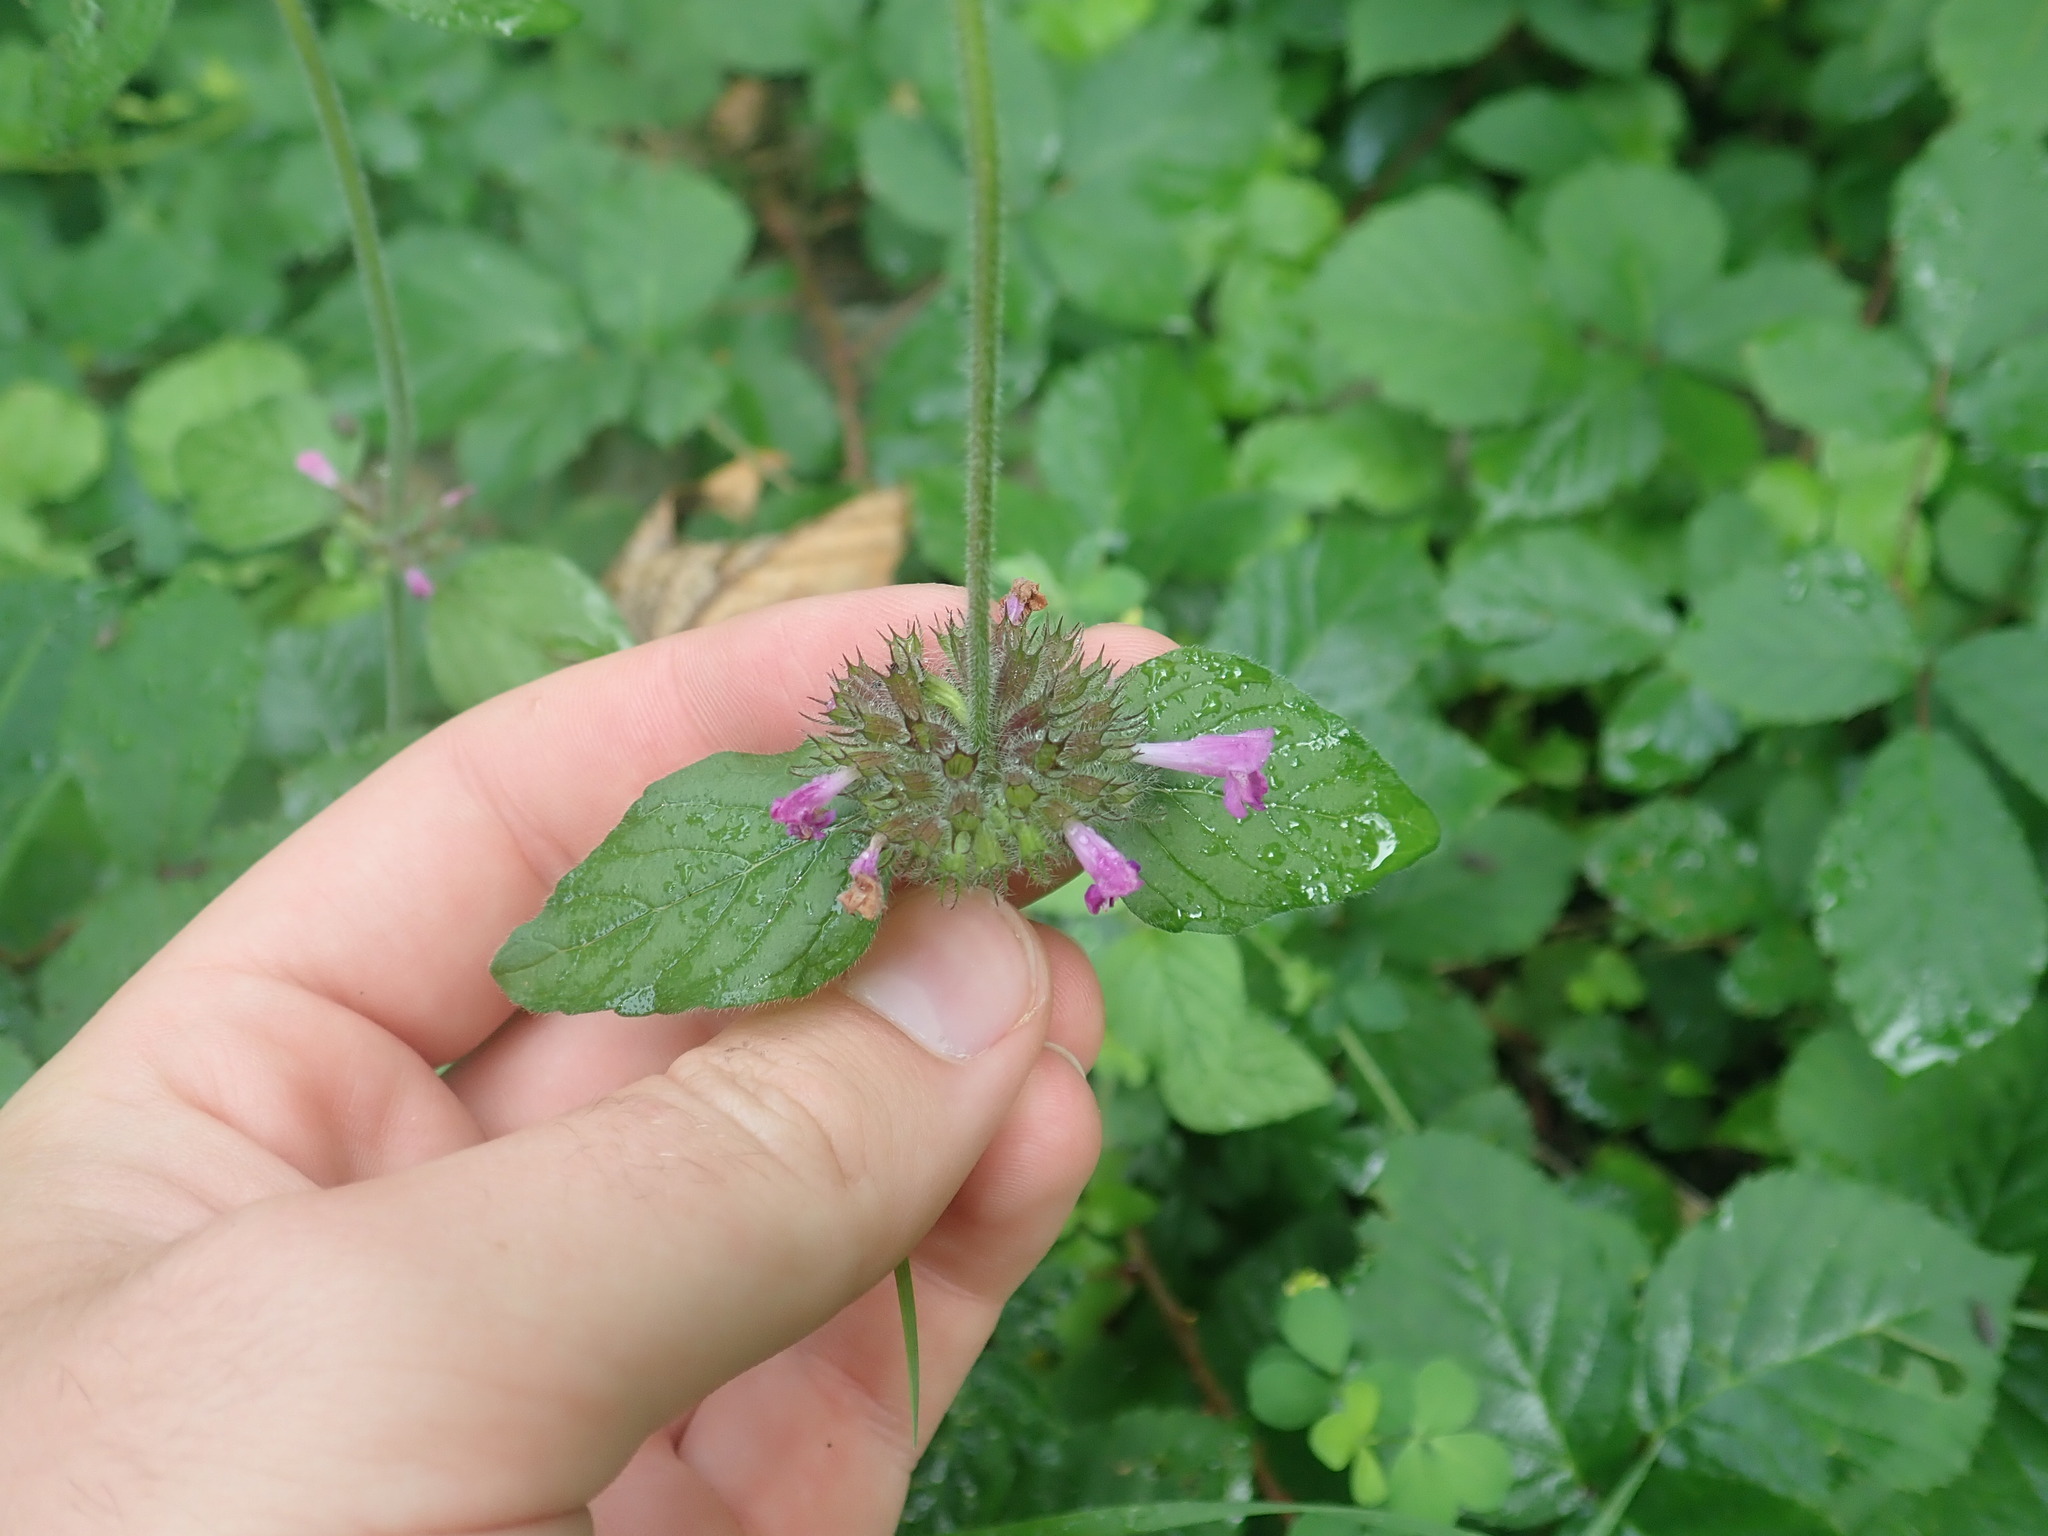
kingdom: Plantae
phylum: Tracheophyta
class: Magnoliopsida
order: Lamiales
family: Lamiaceae
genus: Clinopodium
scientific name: Clinopodium vulgare
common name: Wild basil
